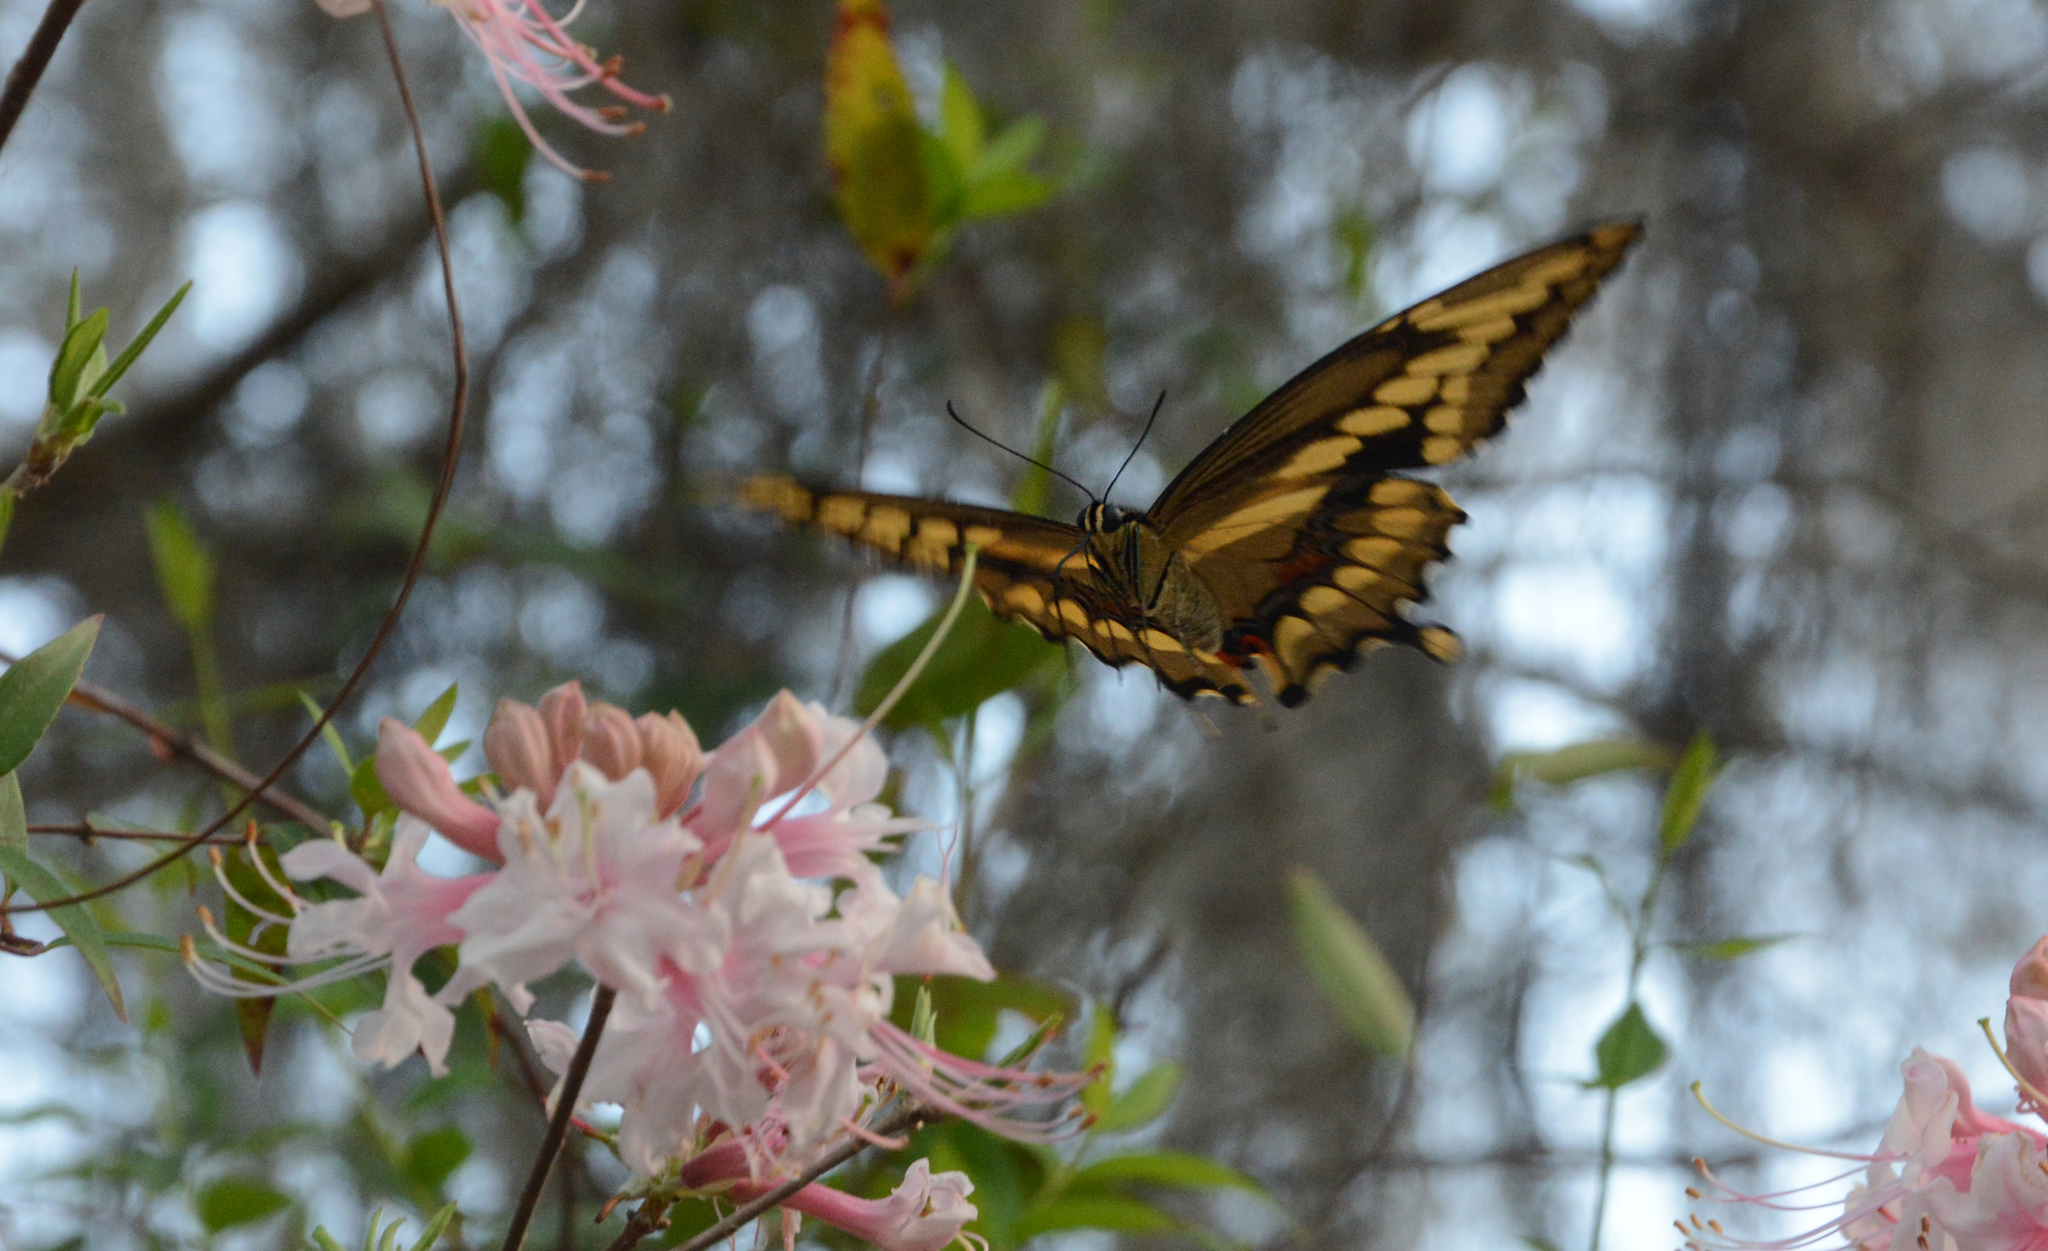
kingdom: Animalia
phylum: Arthropoda
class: Insecta
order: Lepidoptera
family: Papilionidae
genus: Papilio
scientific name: Papilio cresphontes
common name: Giant swallowtail
